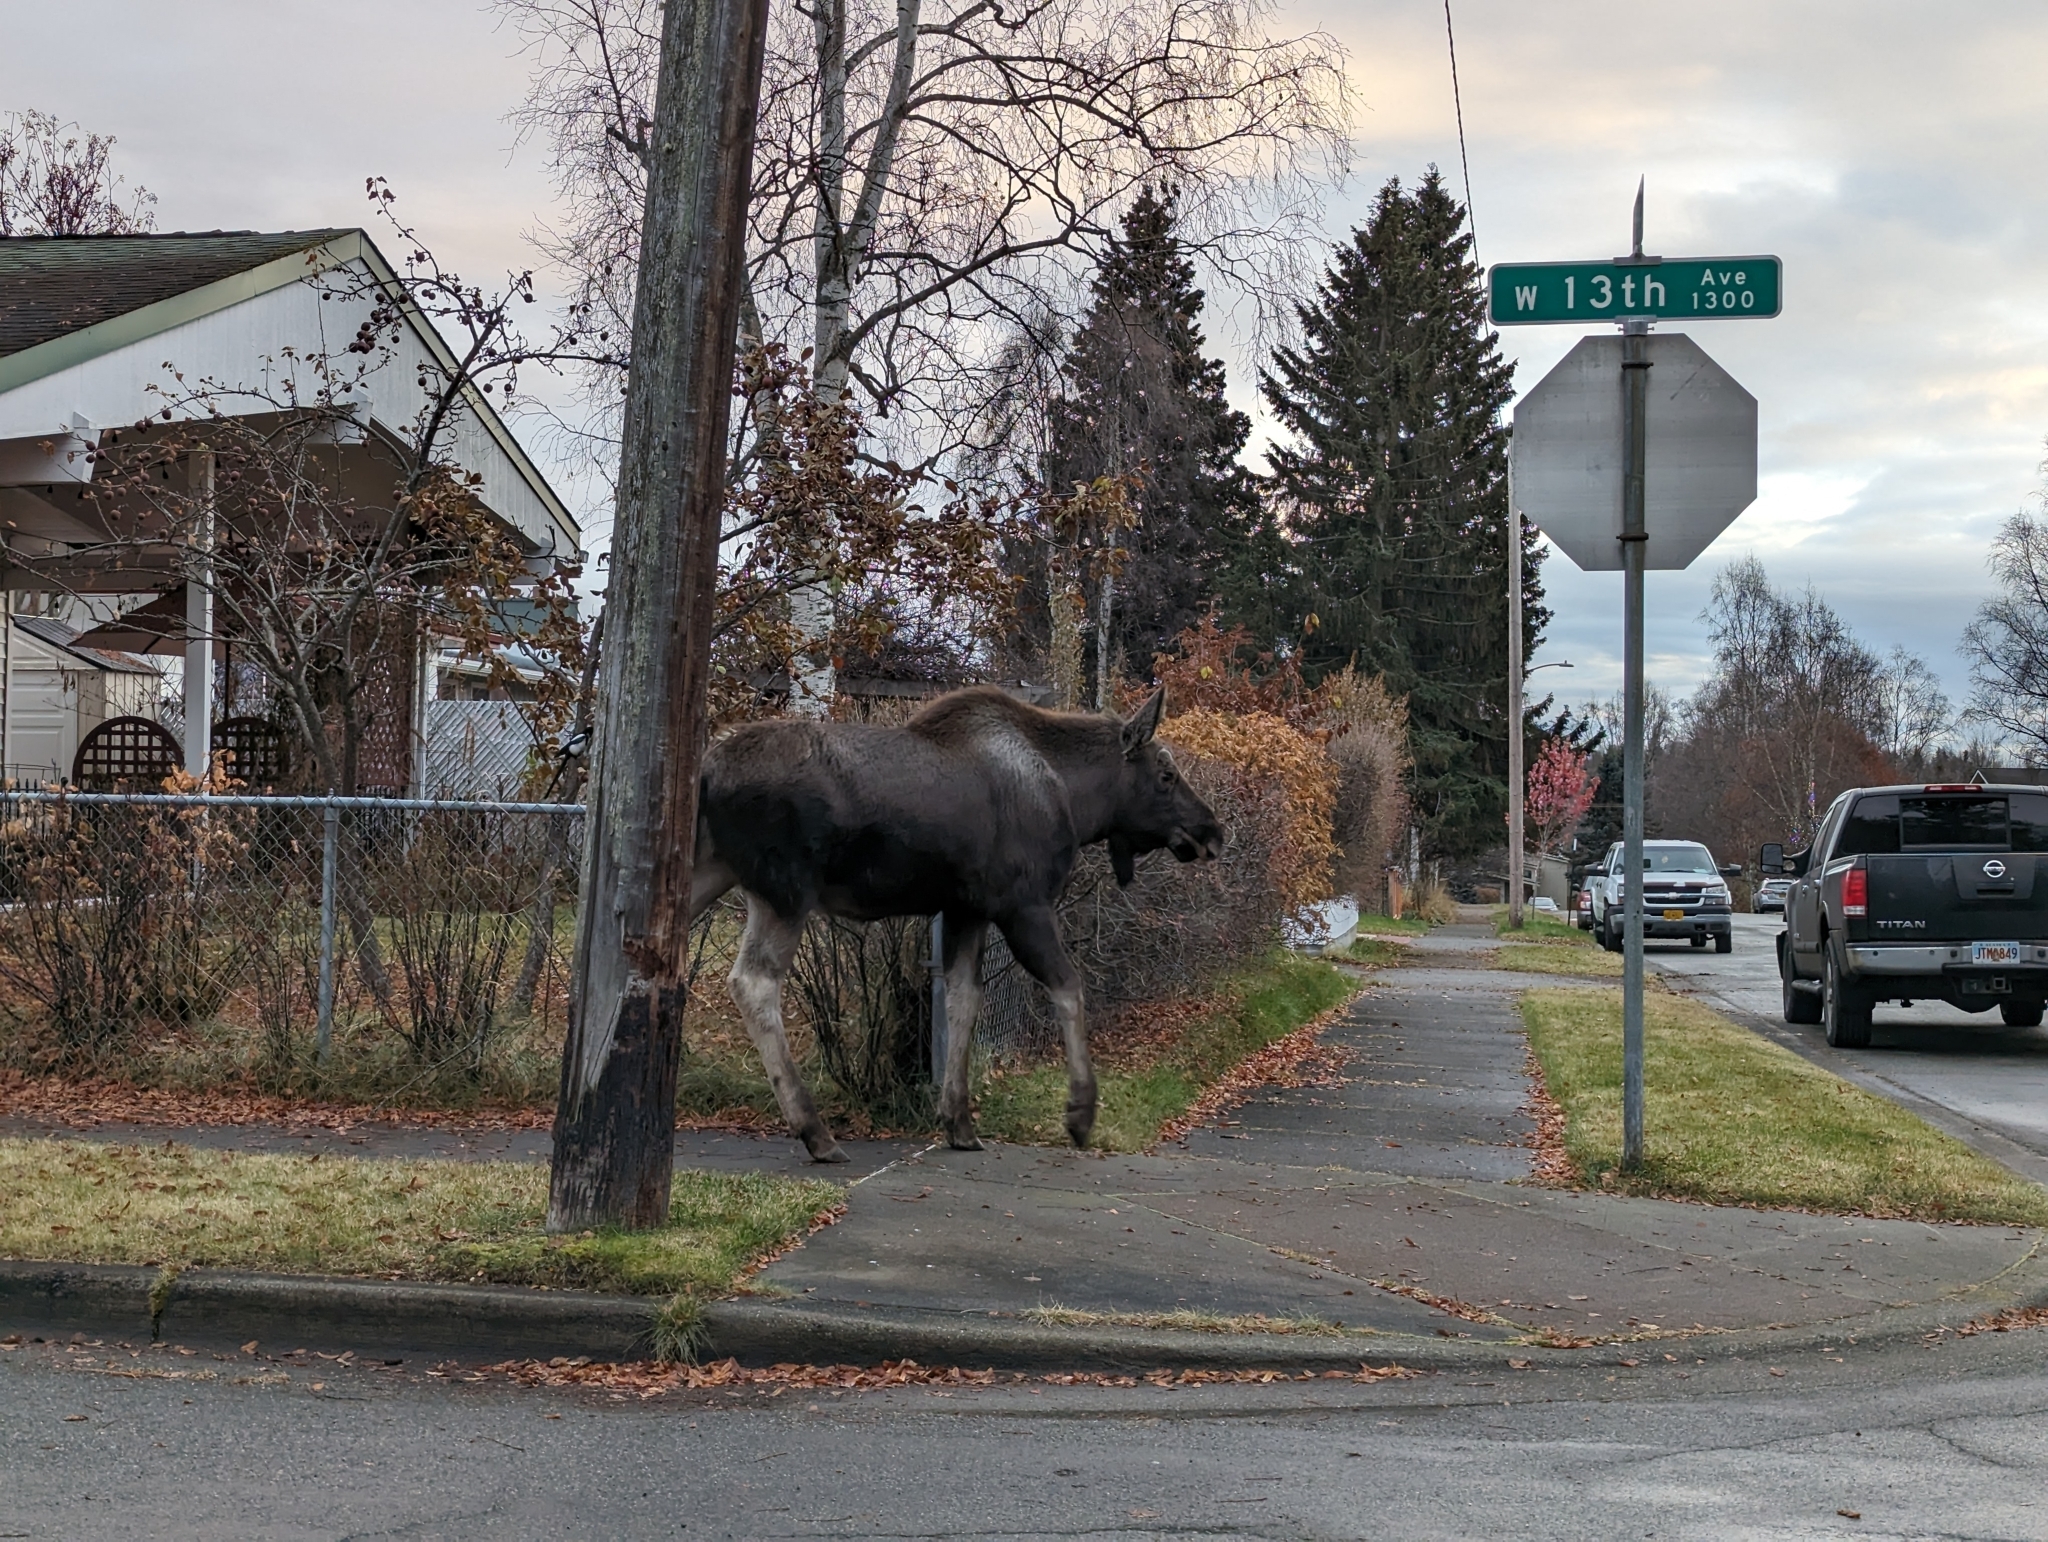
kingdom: Animalia
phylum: Chordata
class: Mammalia
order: Artiodactyla
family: Cervidae
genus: Alces
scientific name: Alces alces
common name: Moose
